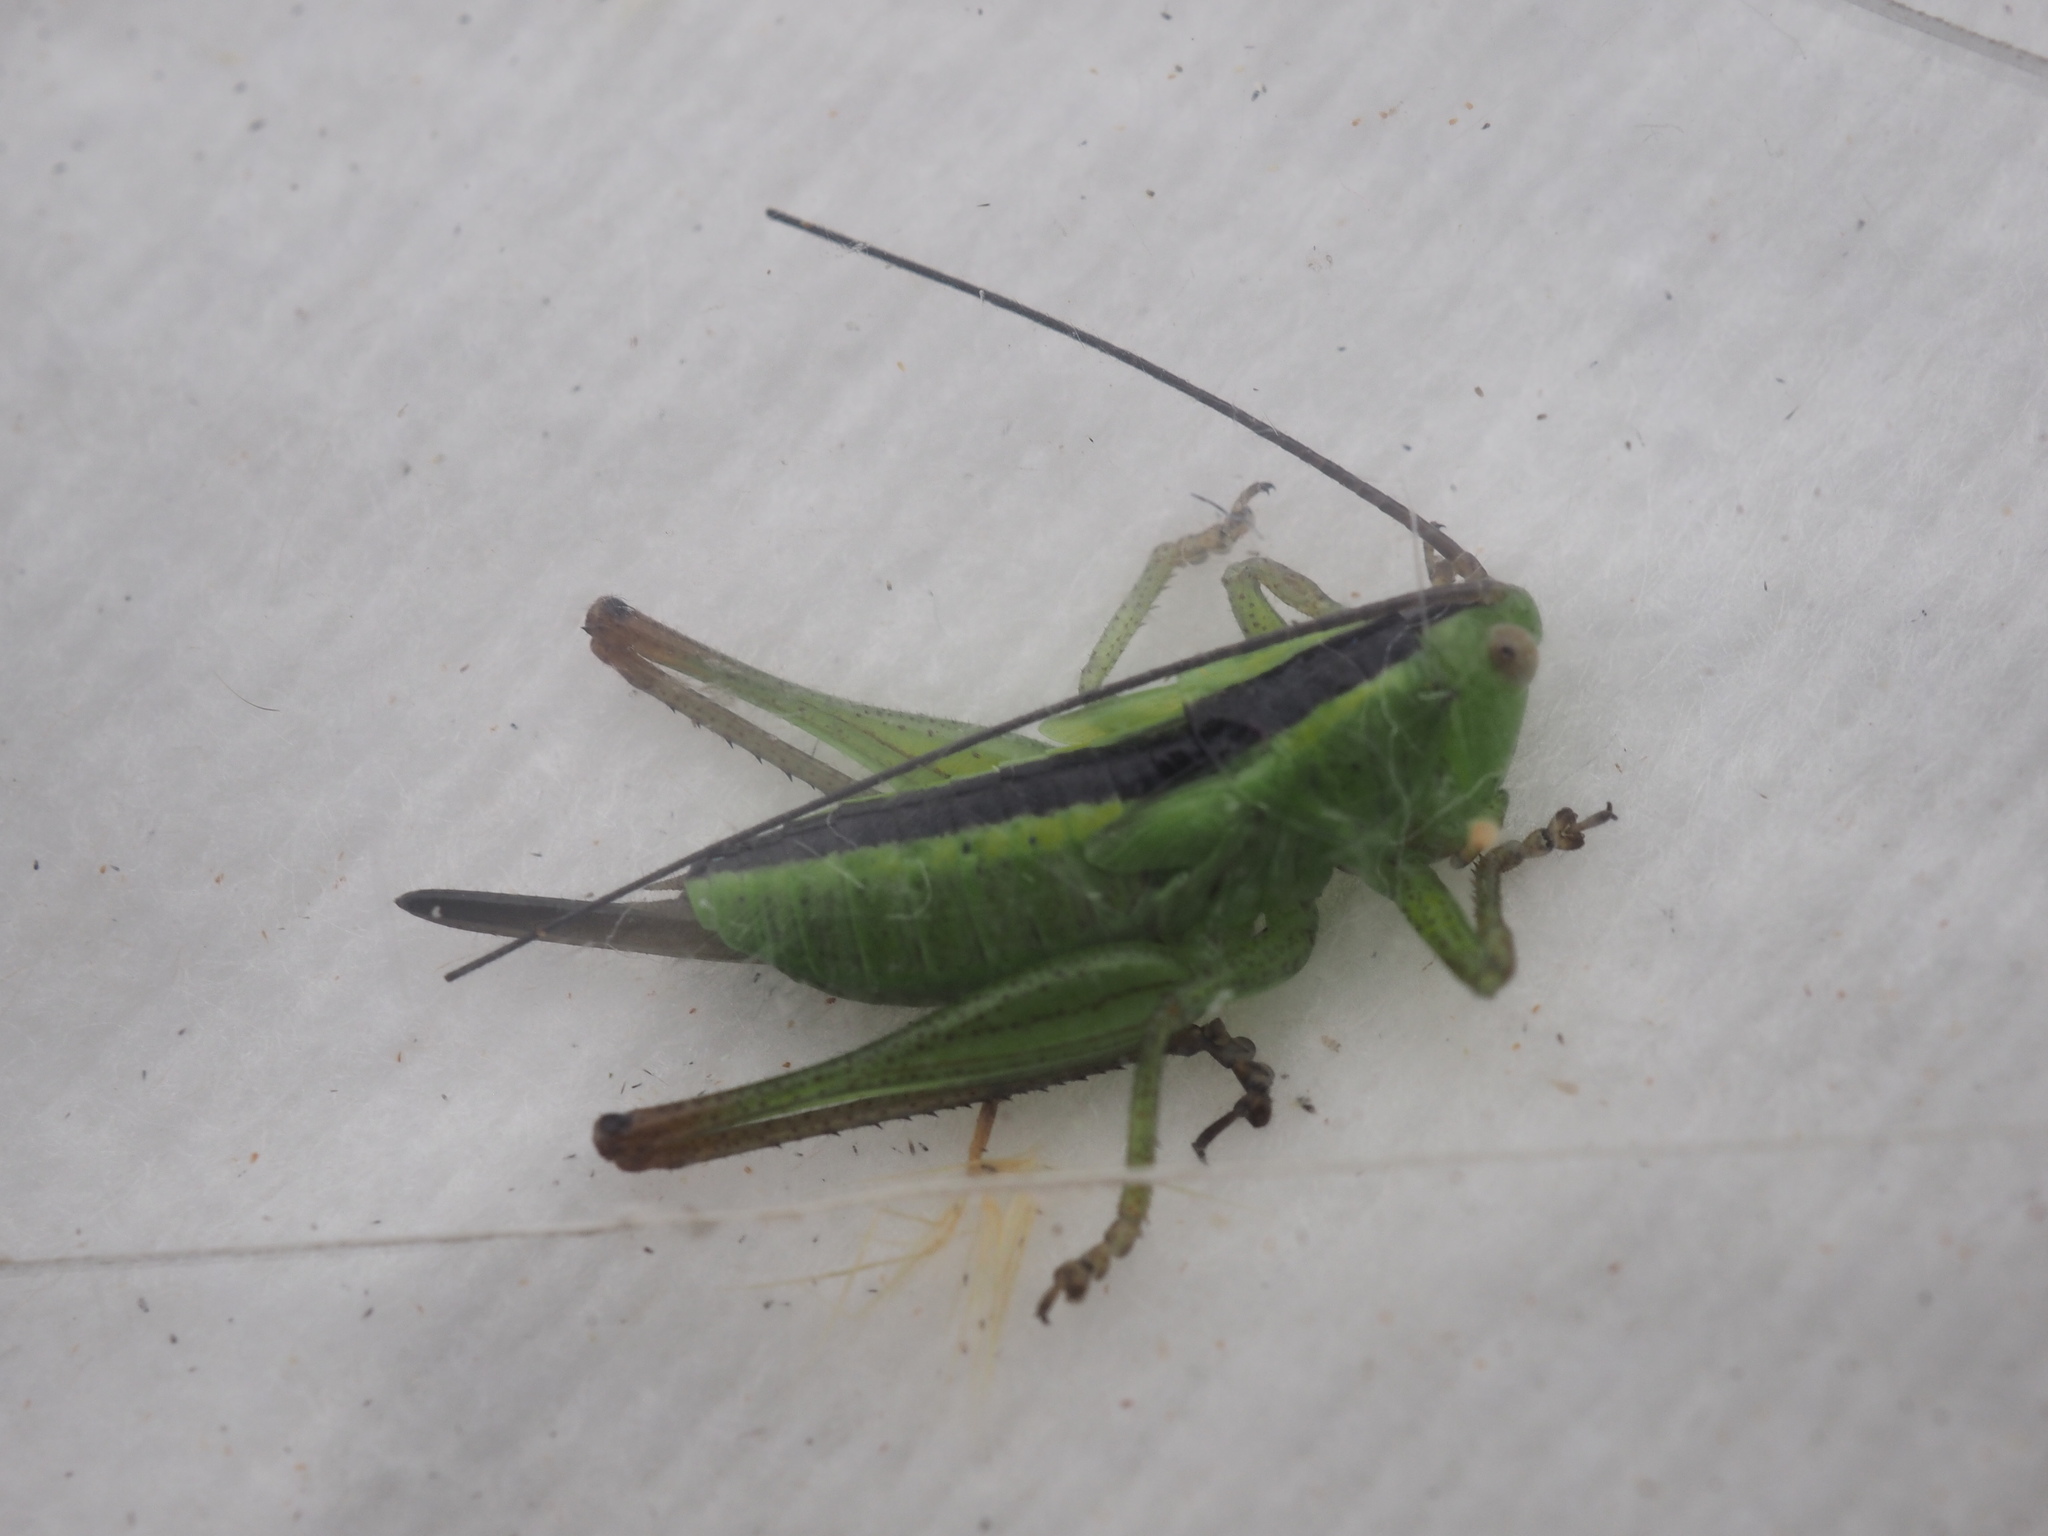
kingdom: Animalia
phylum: Arthropoda
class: Insecta
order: Orthoptera
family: Tettigoniidae
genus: Conocephalus
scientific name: Conocephalus fuscus
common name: Long-winged conehead
